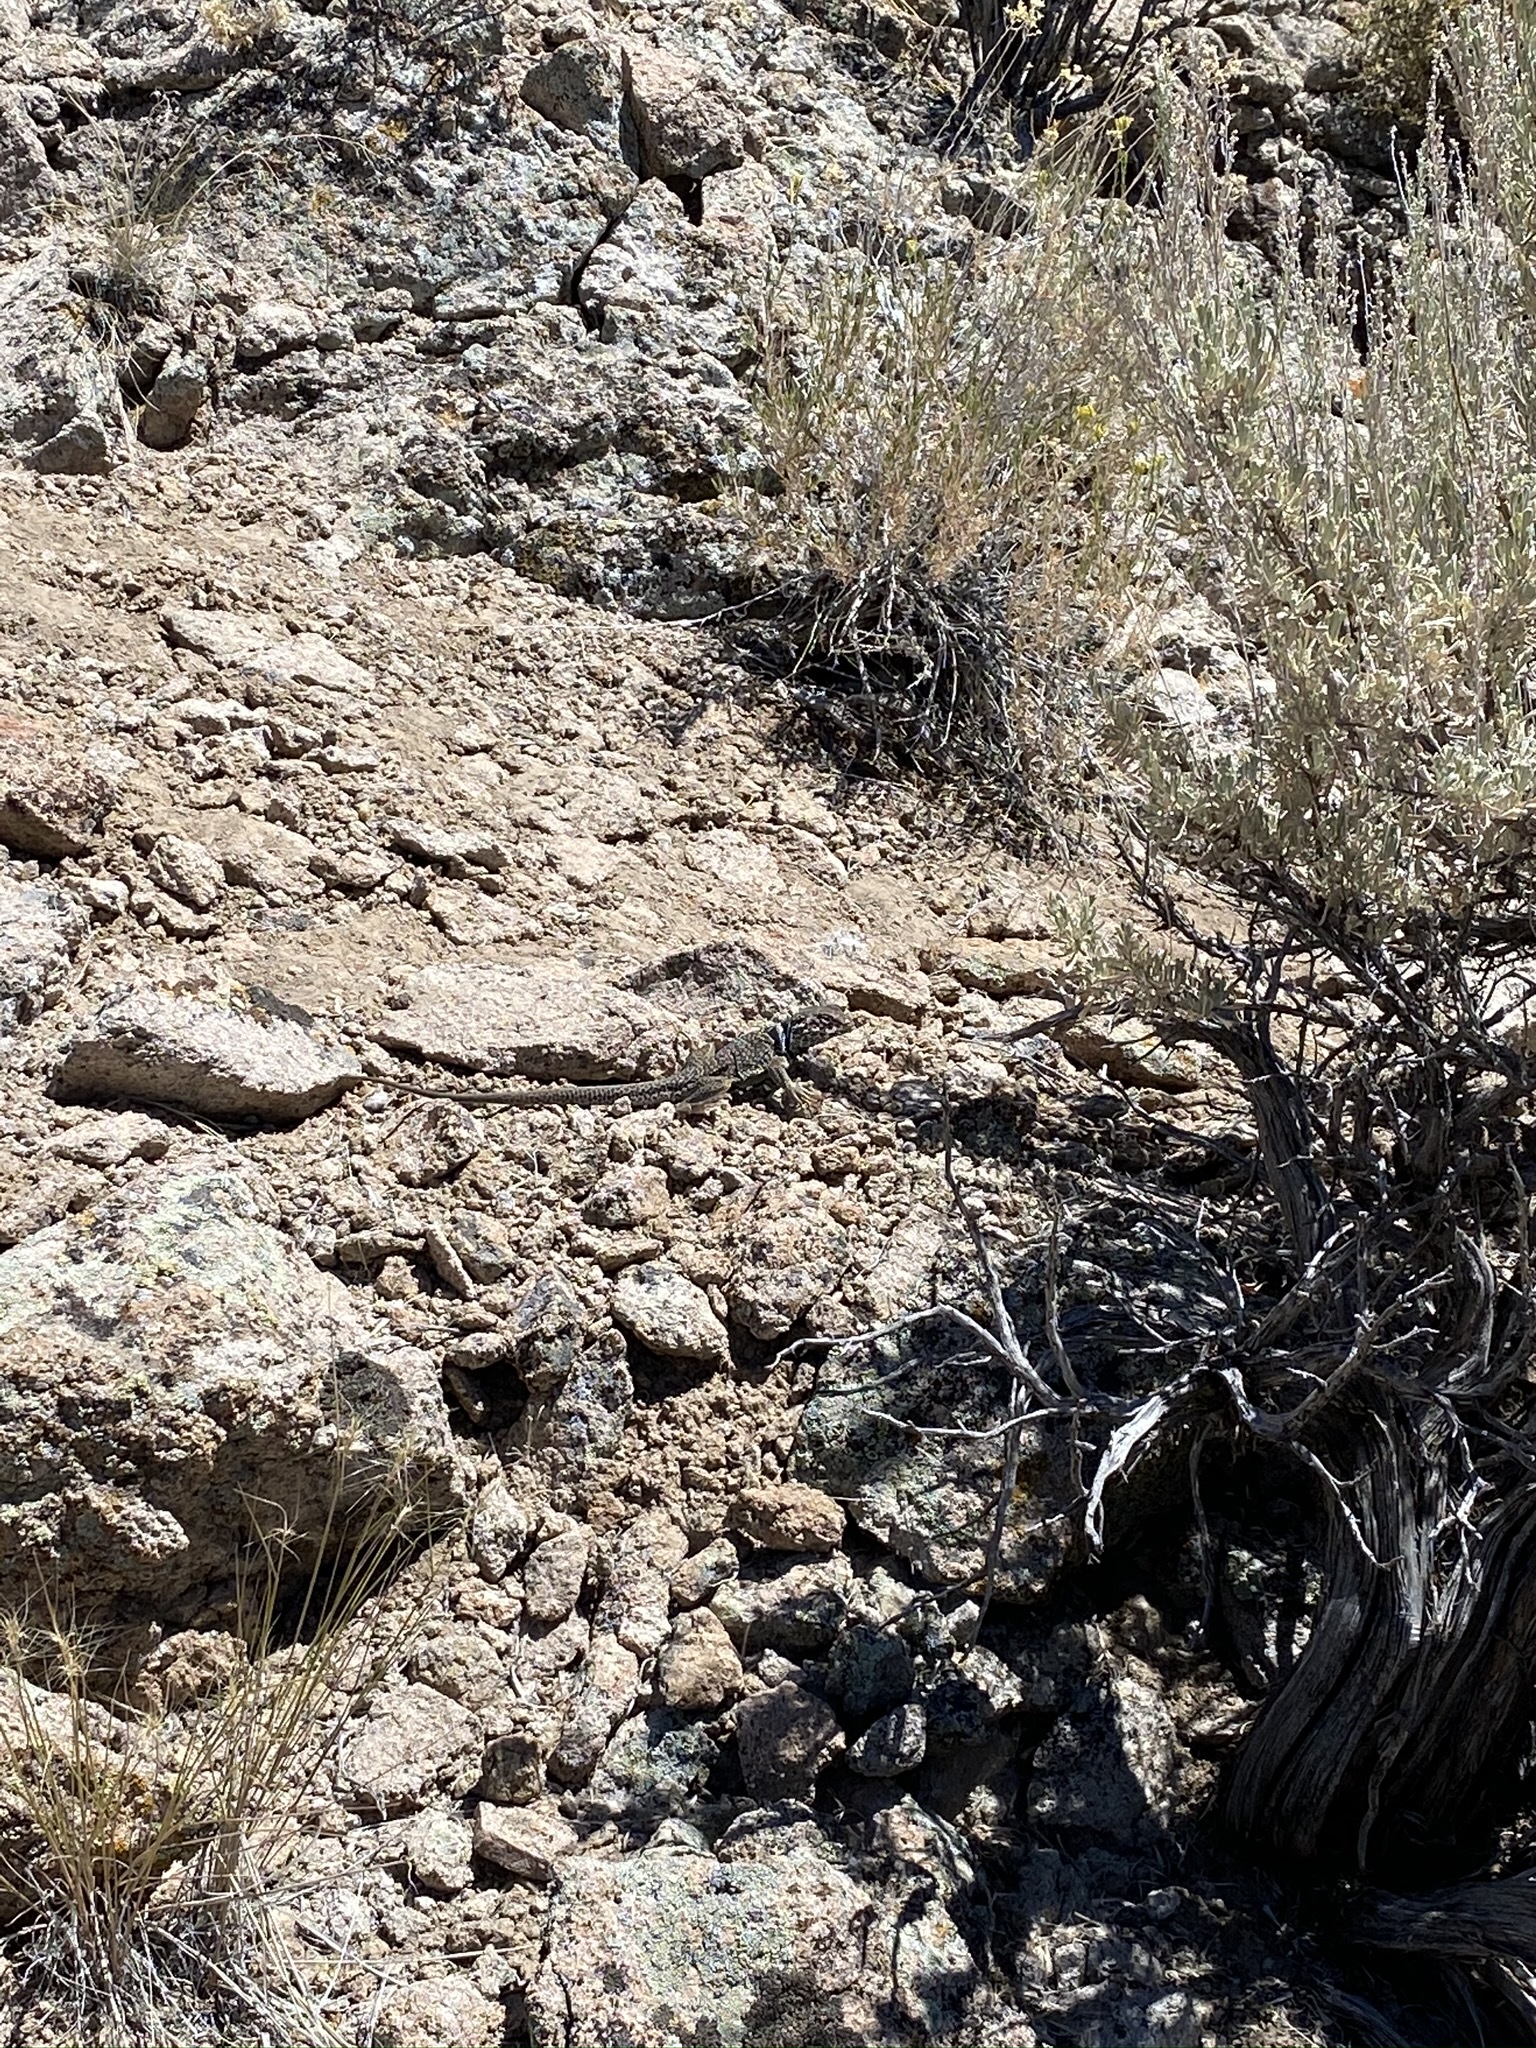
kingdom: Animalia
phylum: Chordata
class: Squamata
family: Crotaphytidae
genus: Crotaphytus
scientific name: Crotaphytus bicinctores
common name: Mojave black-collared lizard
